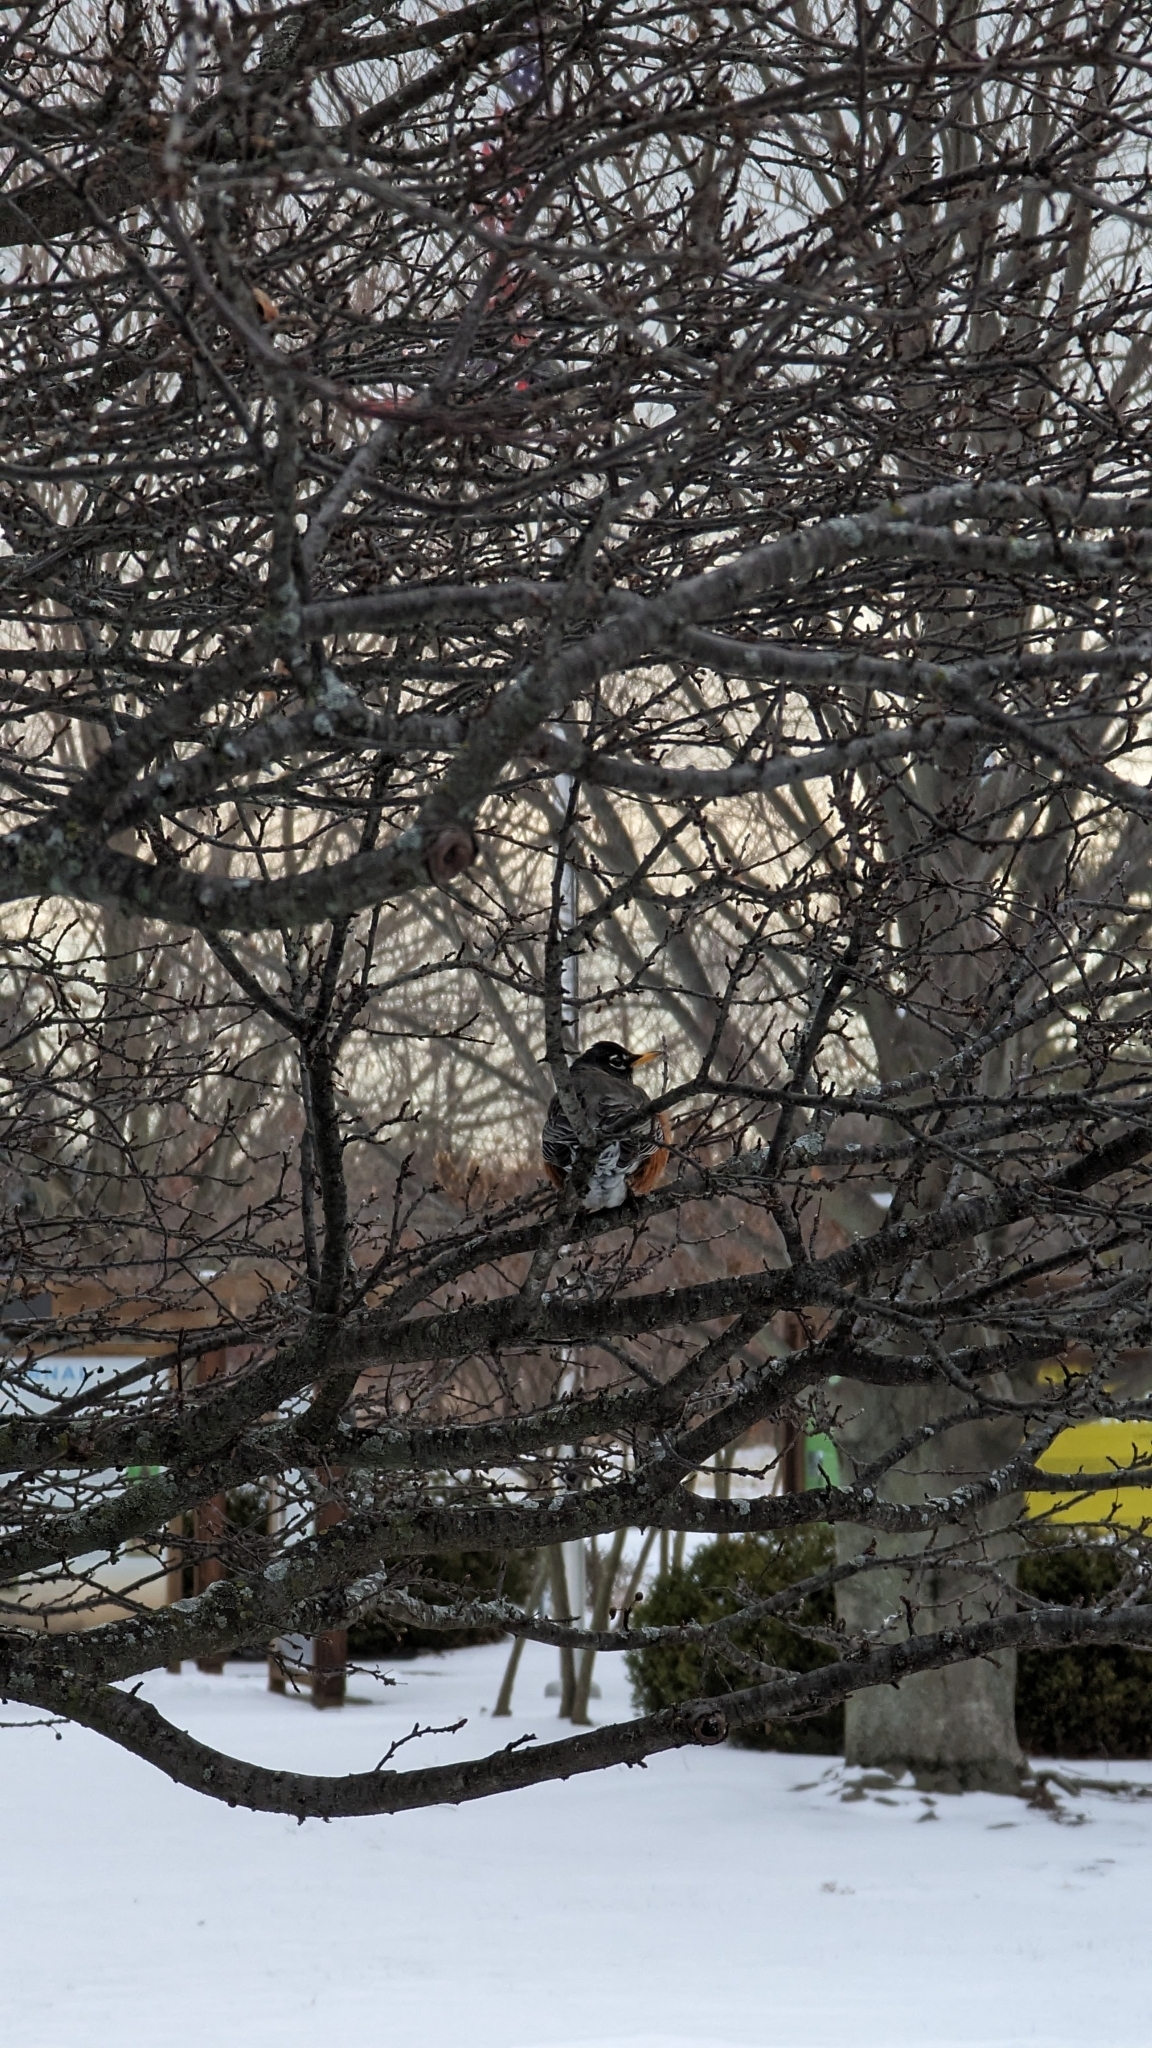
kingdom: Animalia
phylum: Chordata
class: Aves
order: Passeriformes
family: Turdidae
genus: Turdus
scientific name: Turdus migratorius
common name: American robin
